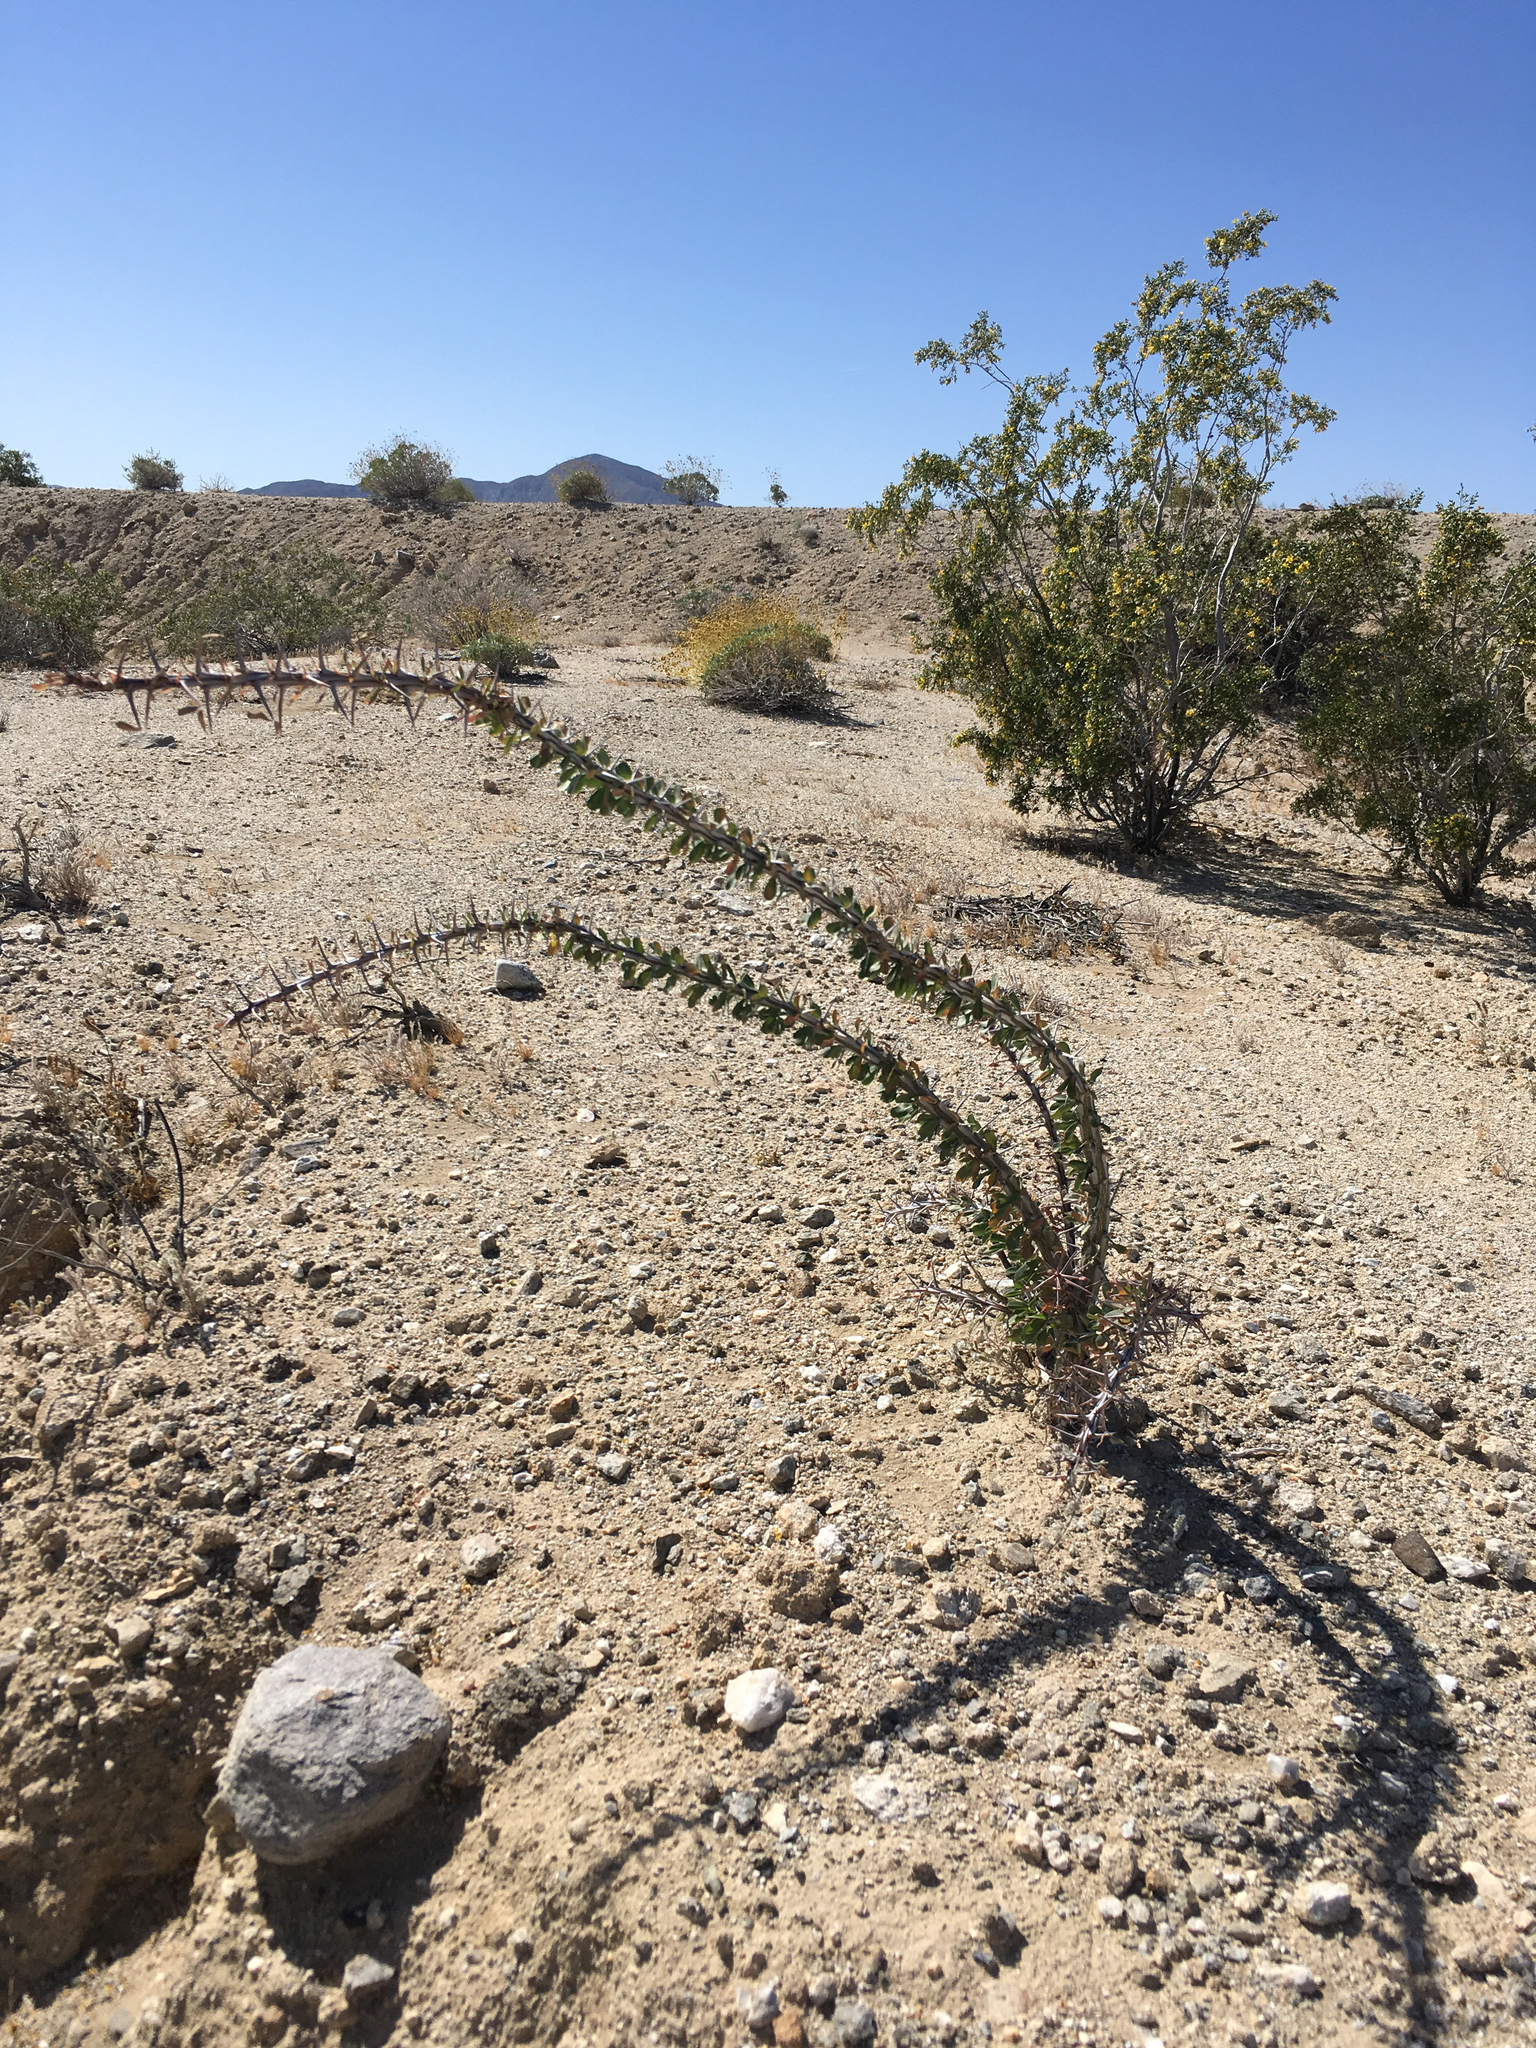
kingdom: Plantae
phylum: Tracheophyta
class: Magnoliopsida
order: Ericales
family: Fouquieriaceae
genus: Fouquieria
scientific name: Fouquieria splendens
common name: Vine-cactus
